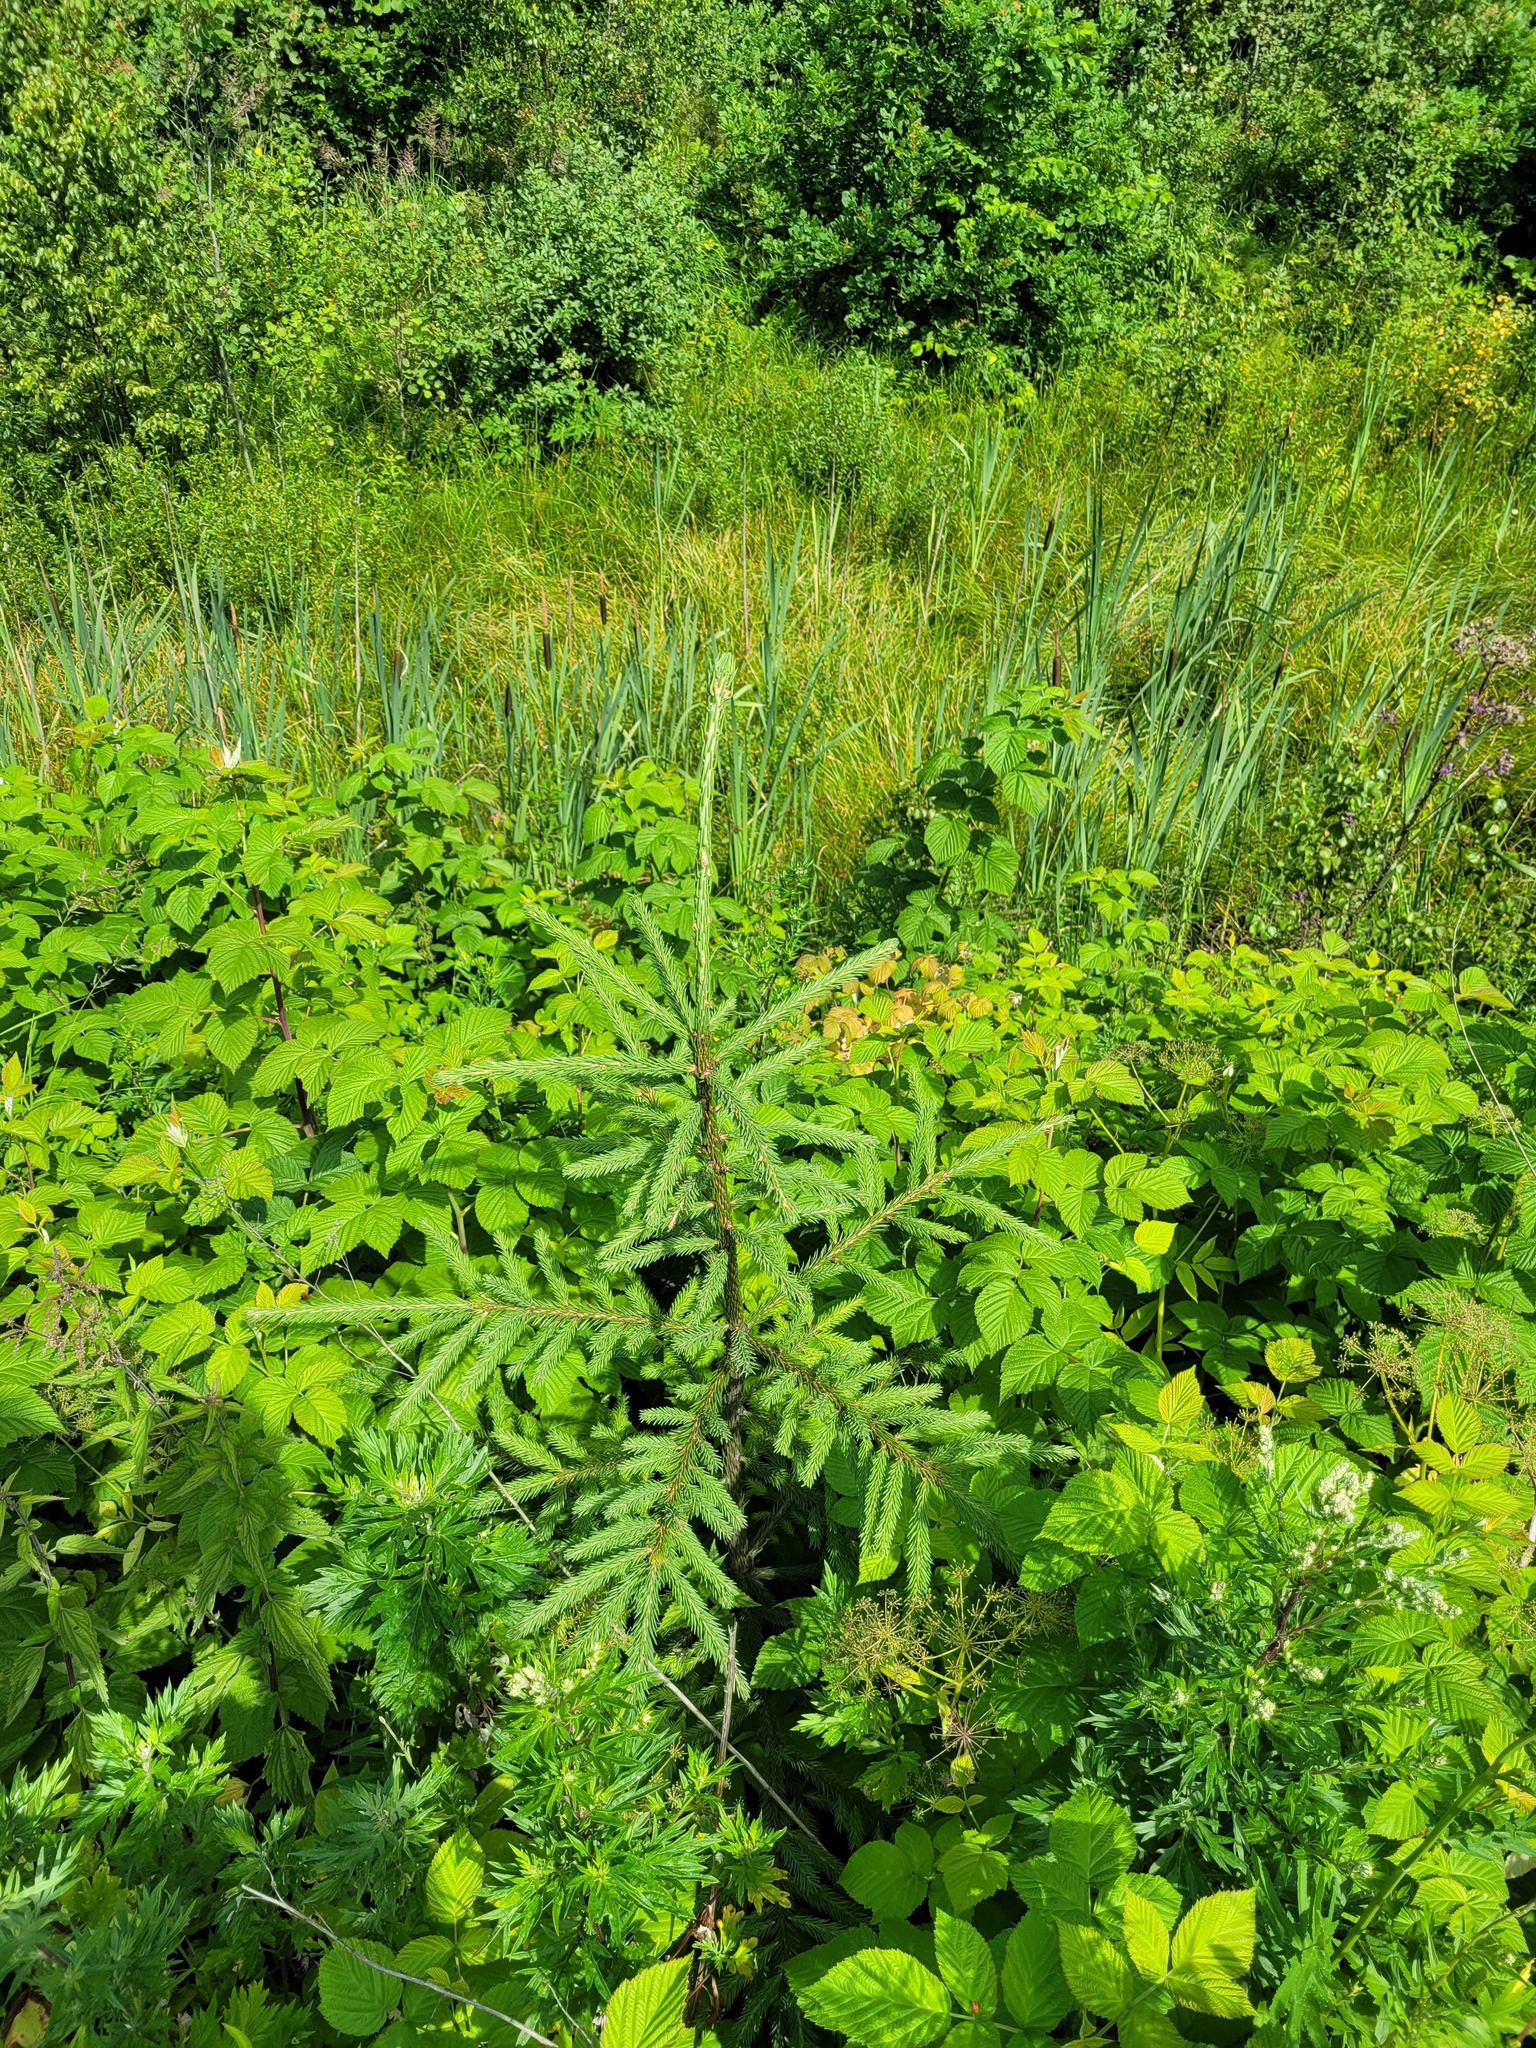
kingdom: Plantae
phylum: Tracheophyta
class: Pinopsida
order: Pinales
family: Pinaceae
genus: Picea
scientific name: Picea abies
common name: Norway spruce
